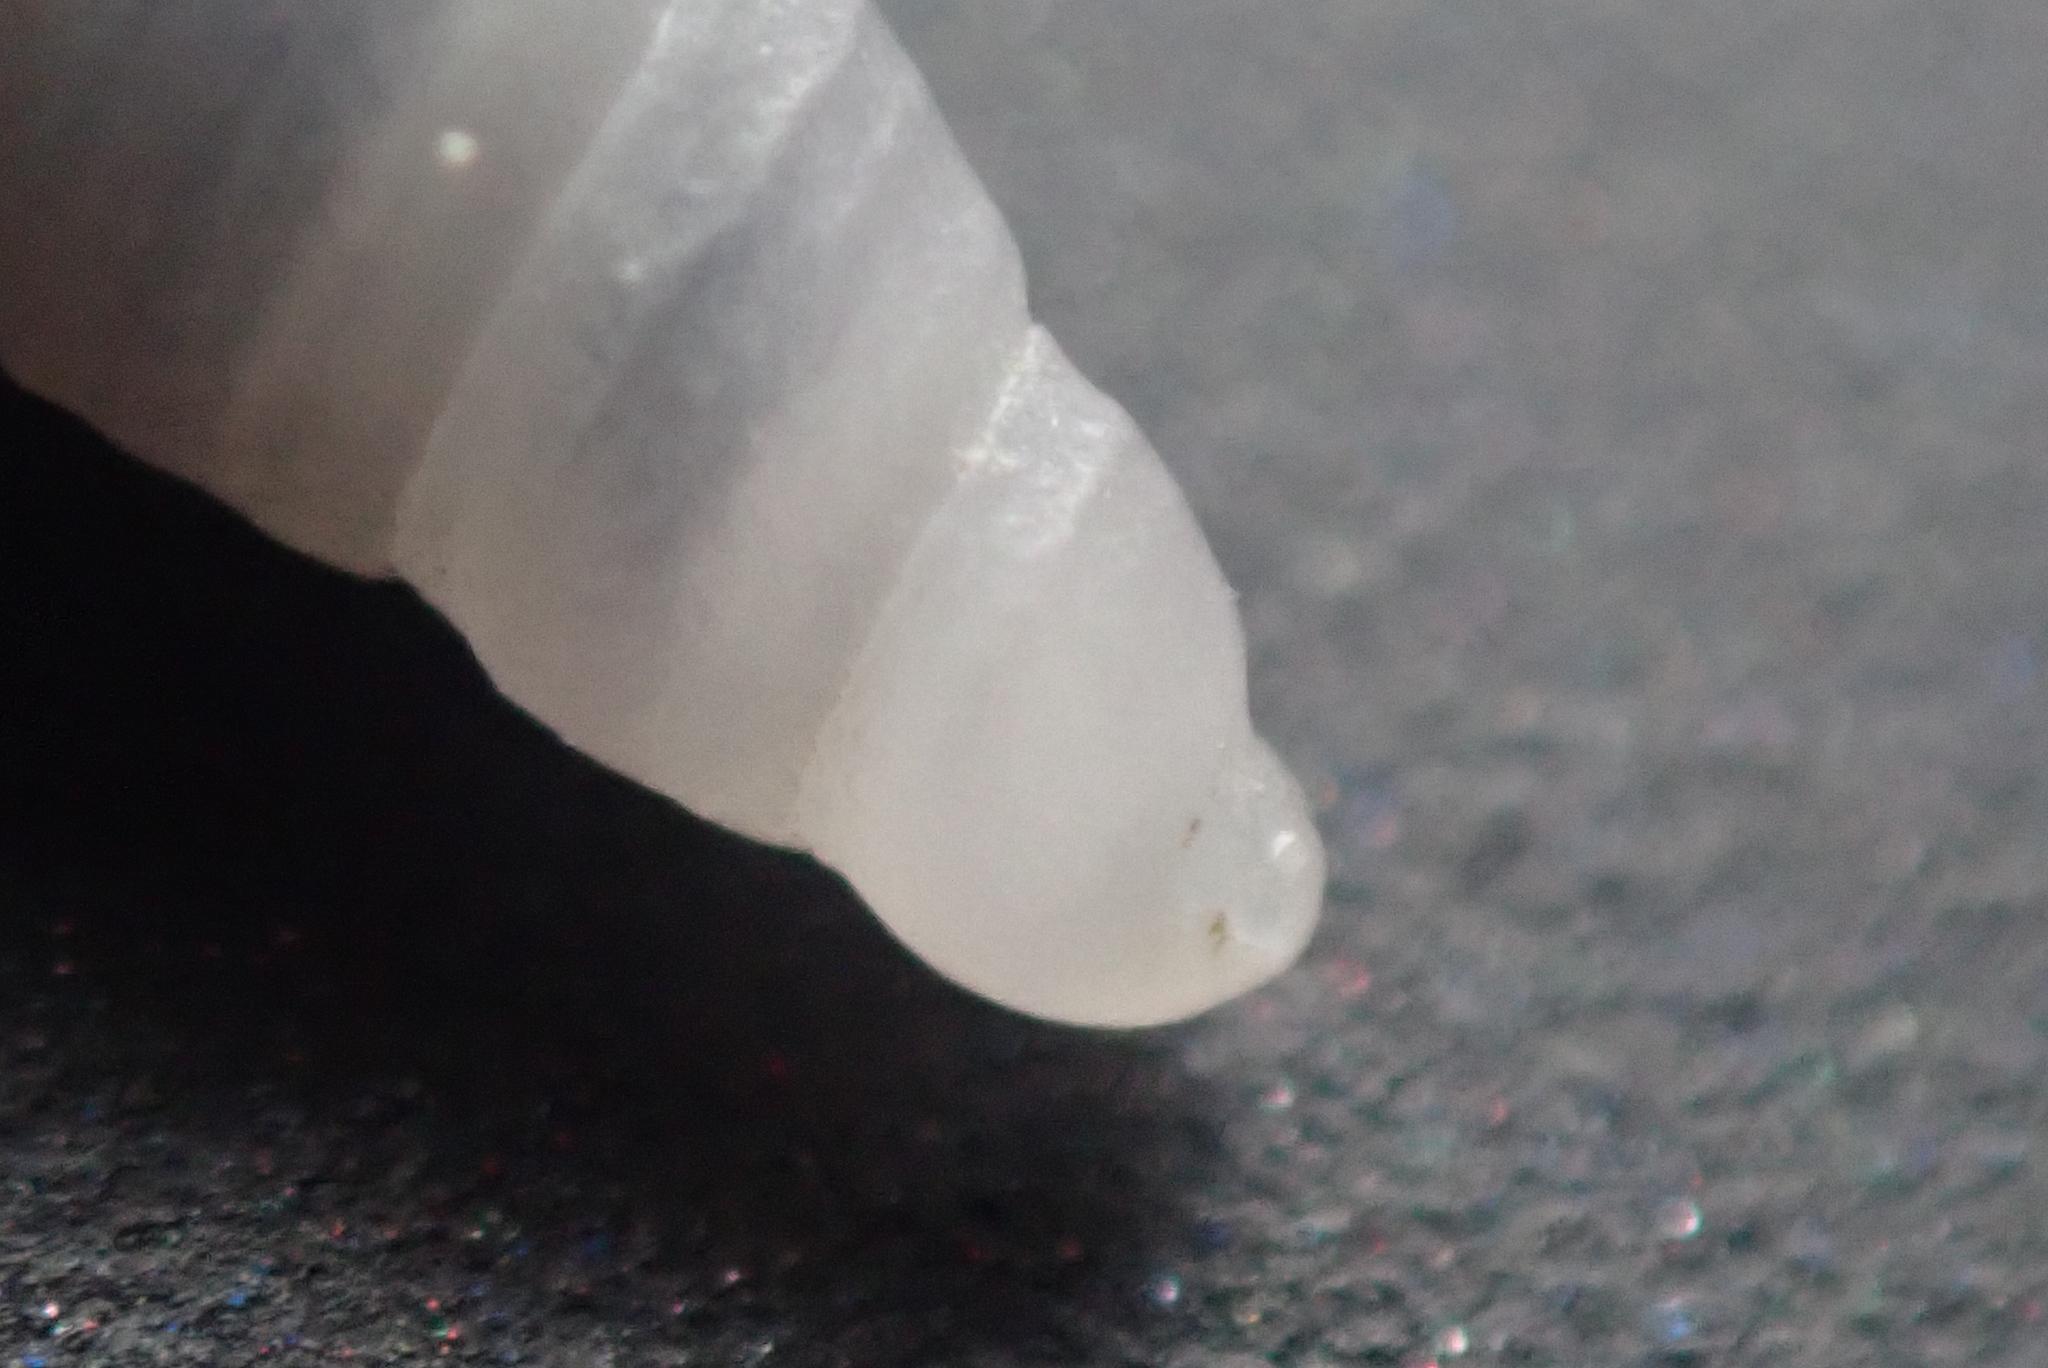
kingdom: Animalia
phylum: Mollusca
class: Gastropoda
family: Turritellidae
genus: Maoricolpus
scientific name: Maoricolpus roseus
